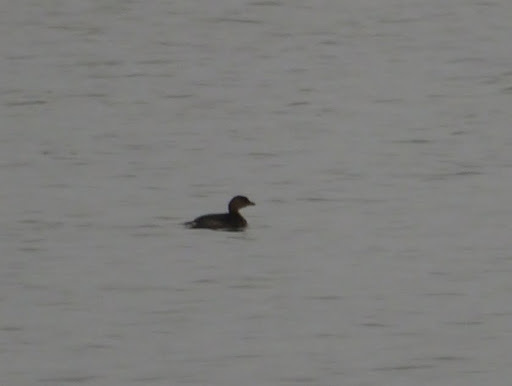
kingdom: Animalia
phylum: Chordata
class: Aves
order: Podicipediformes
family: Podicipedidae
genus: Podilymbus
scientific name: Podilymbus podiceps
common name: Pied-billed grebe
